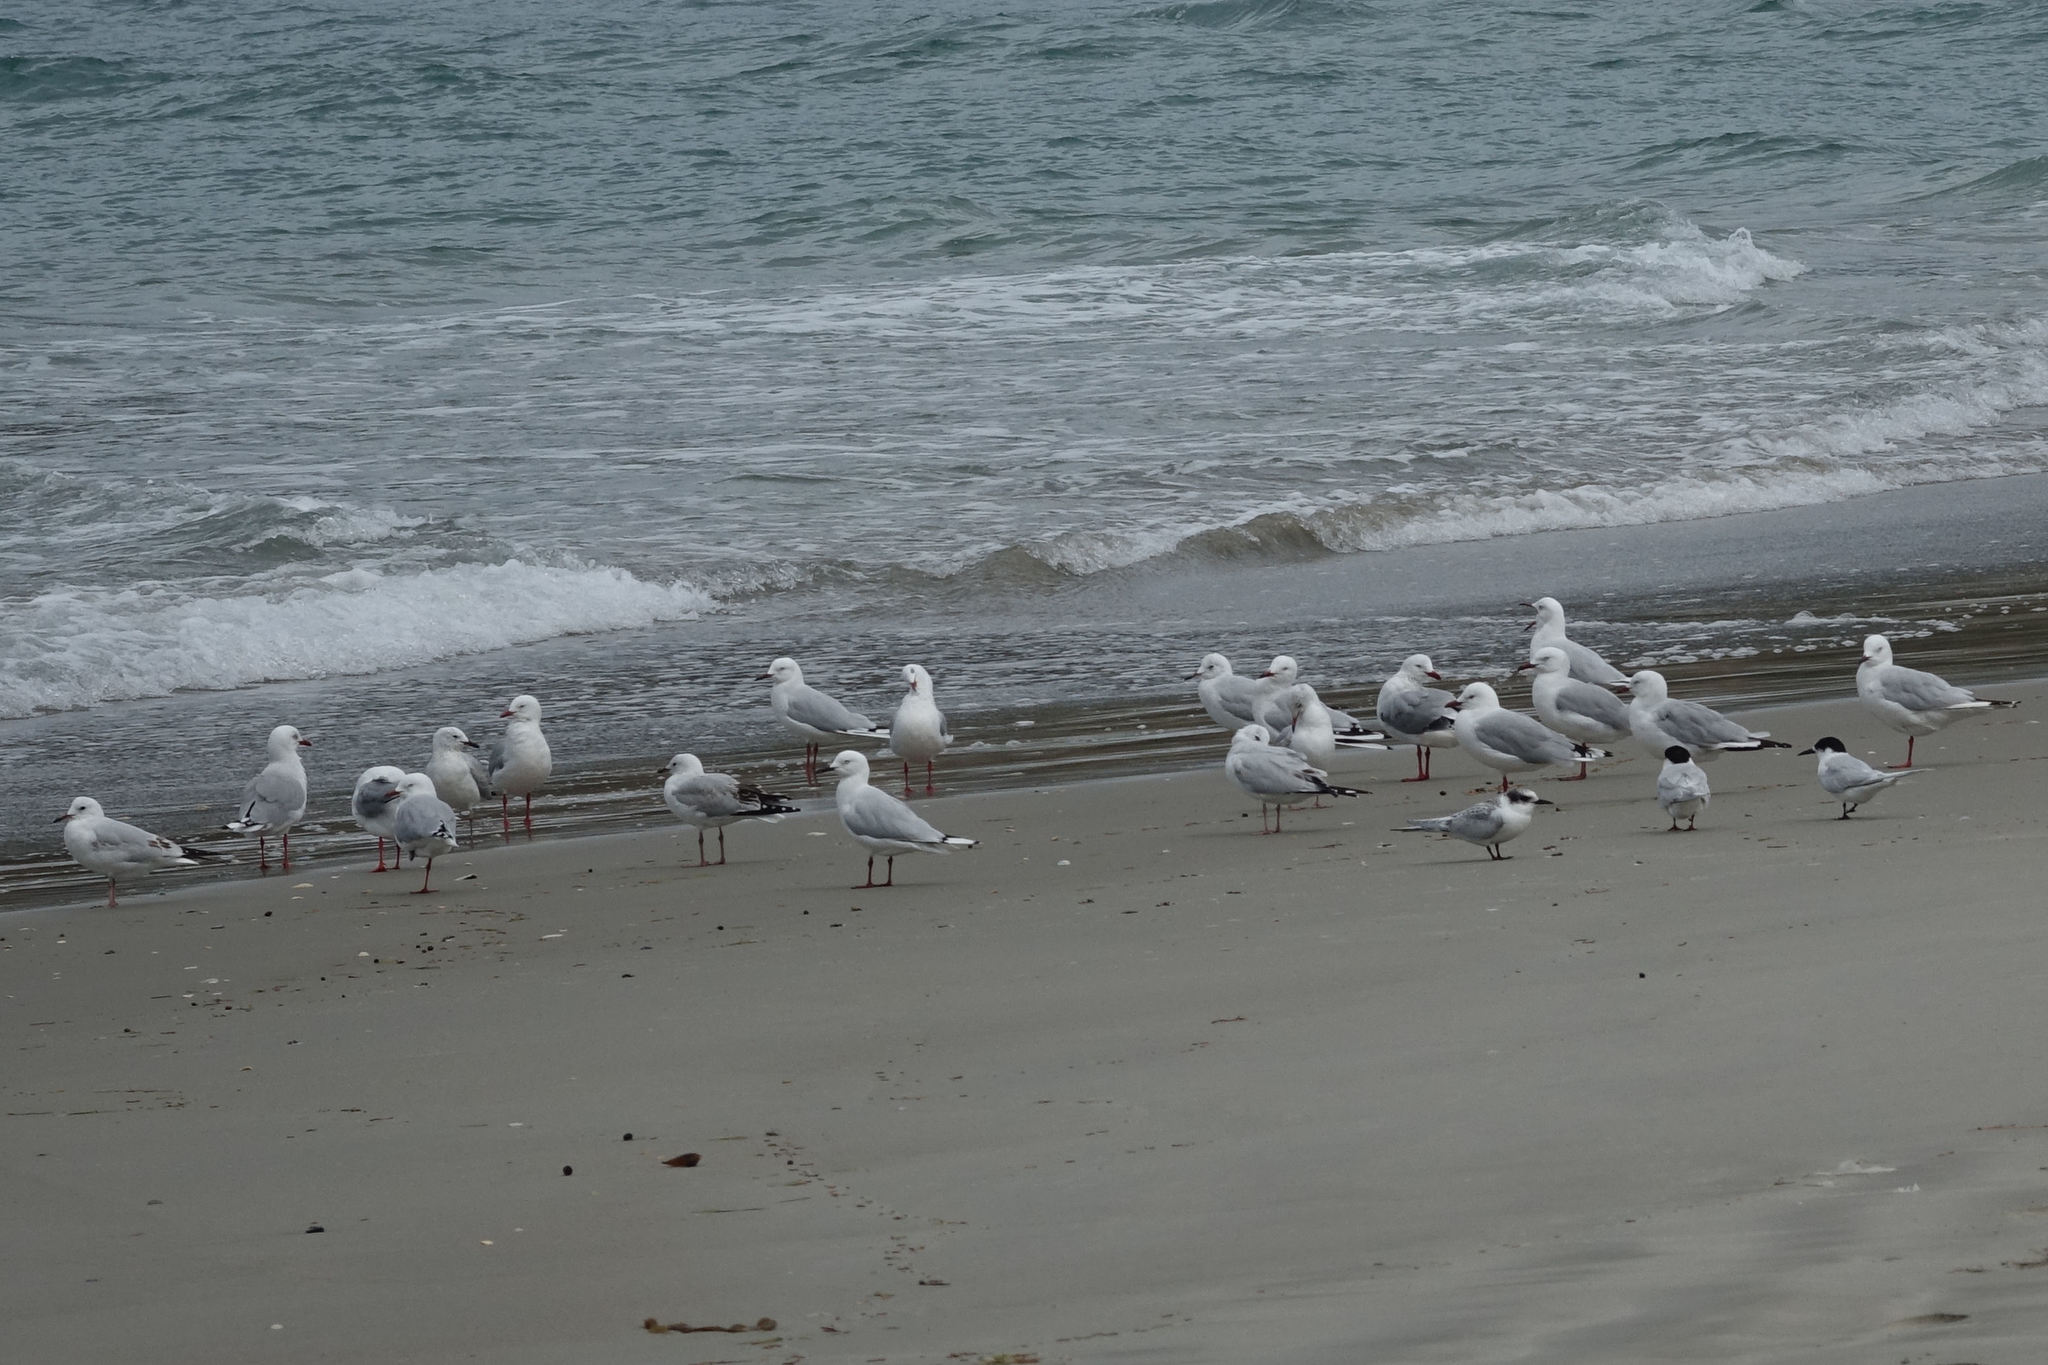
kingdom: Animalia
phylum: Chordata
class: Aves
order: Charadriiformes
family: Laridae
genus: Sterna
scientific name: Sterna striata
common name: White-fronted tern
